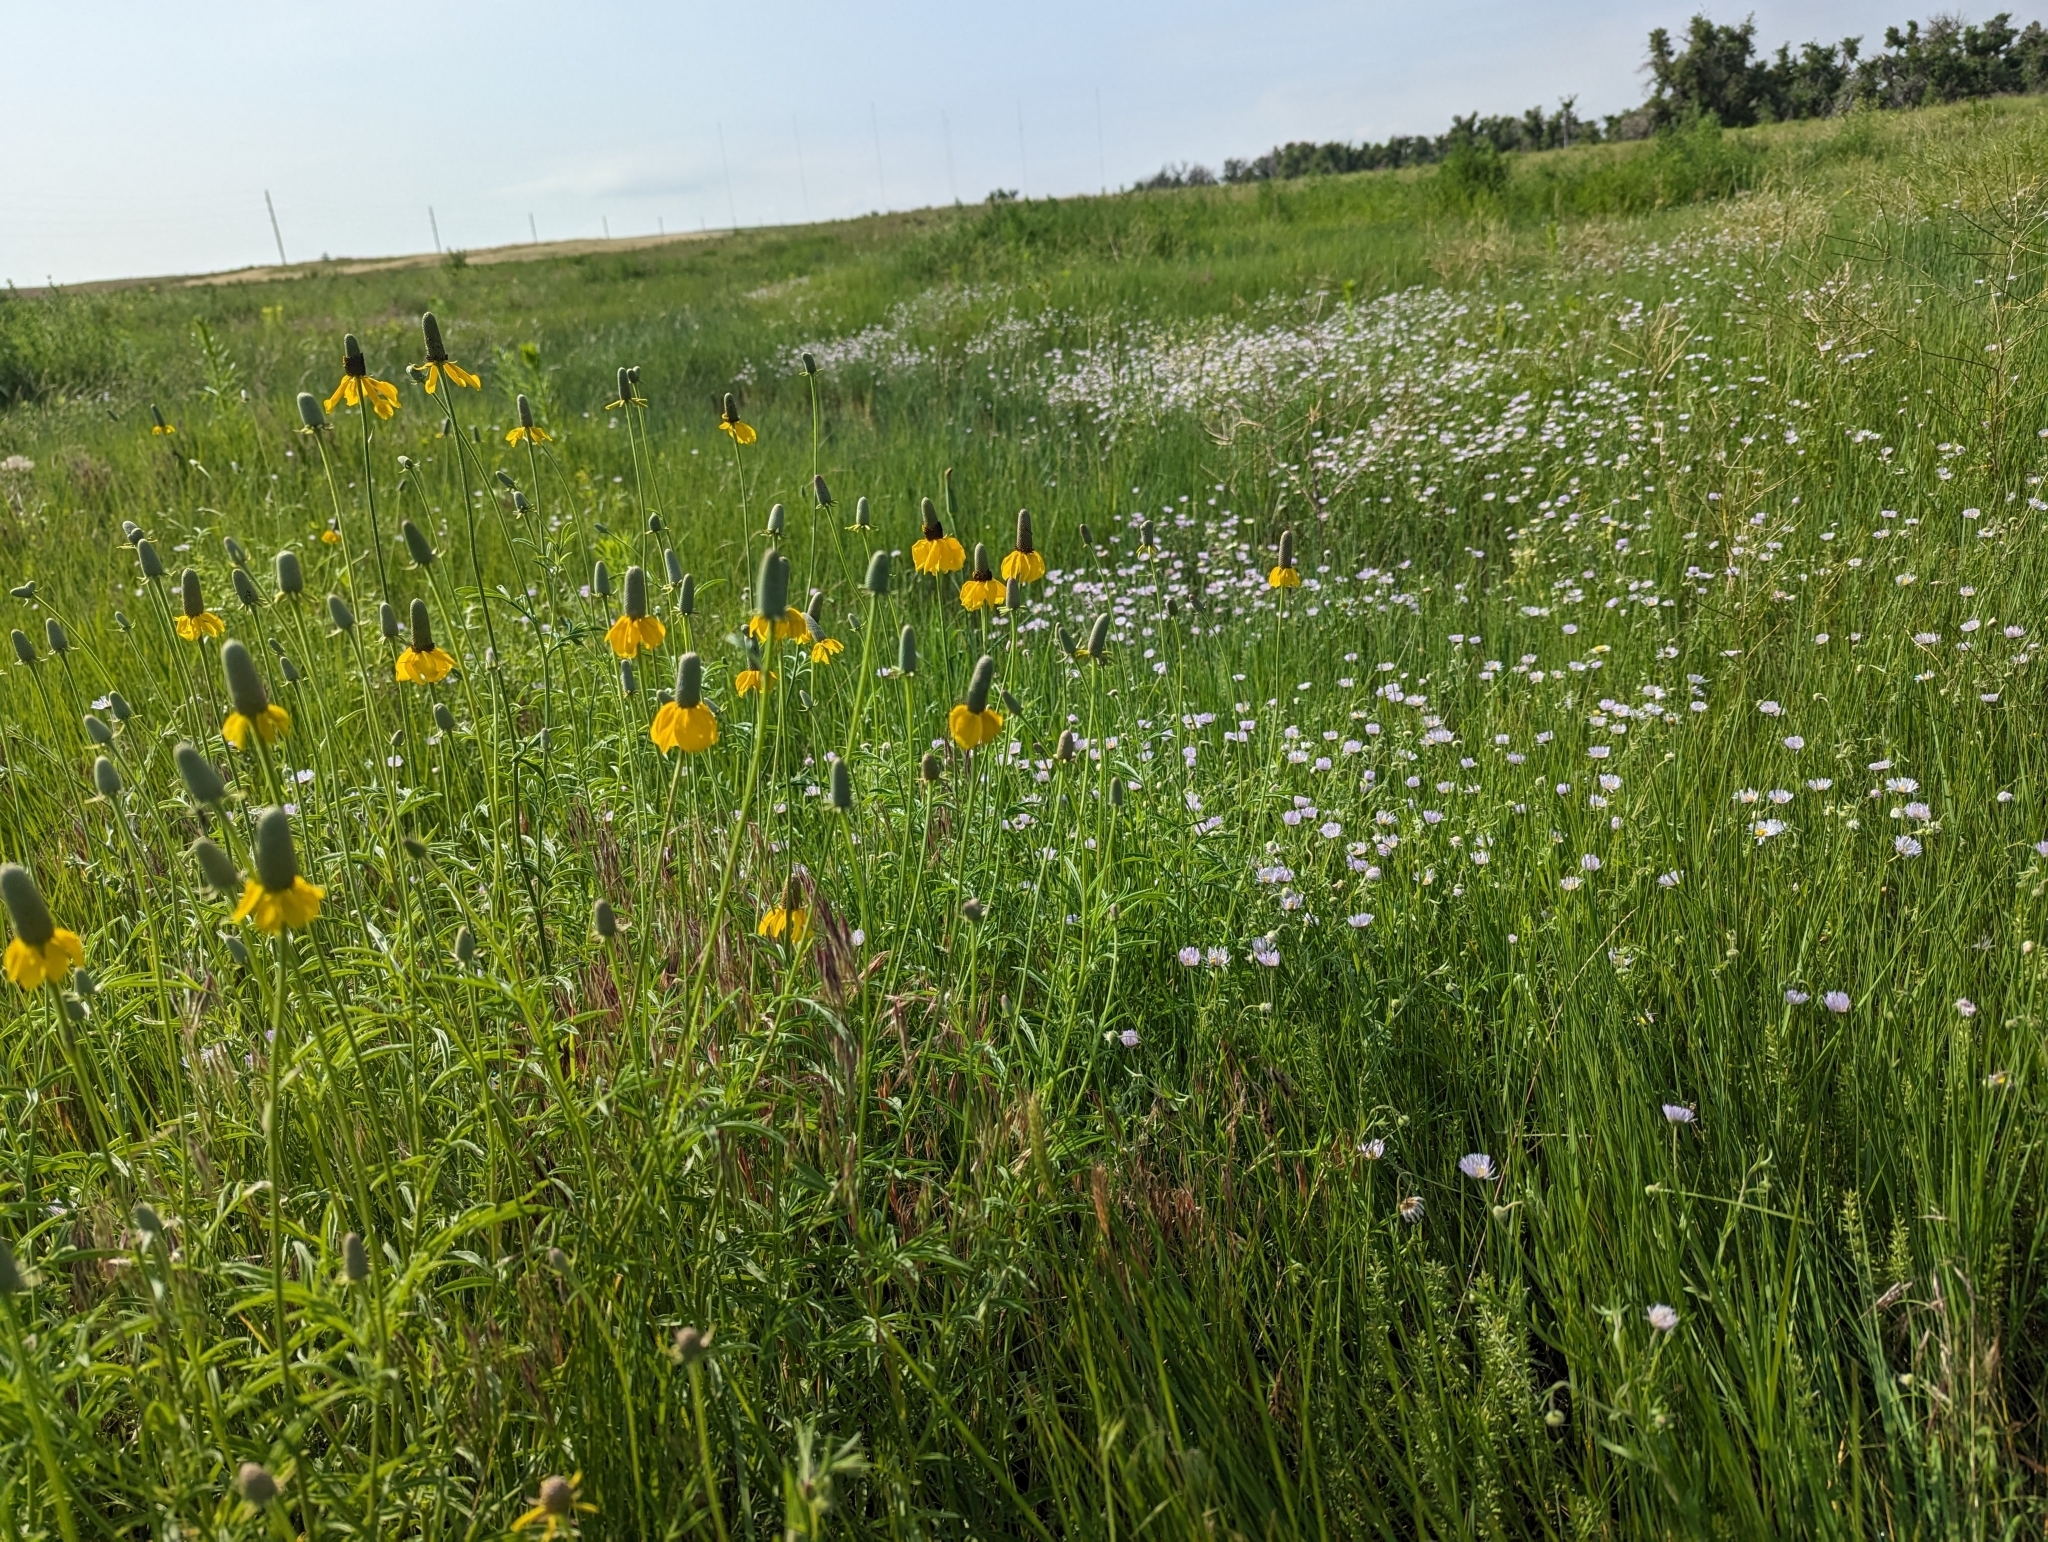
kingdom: Plantae
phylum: Tracheophyta
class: Magnoliopsida
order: Asterales
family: Asteraceae
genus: Ratibida
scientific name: Ratibida columnifera
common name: Prairie coneflower
